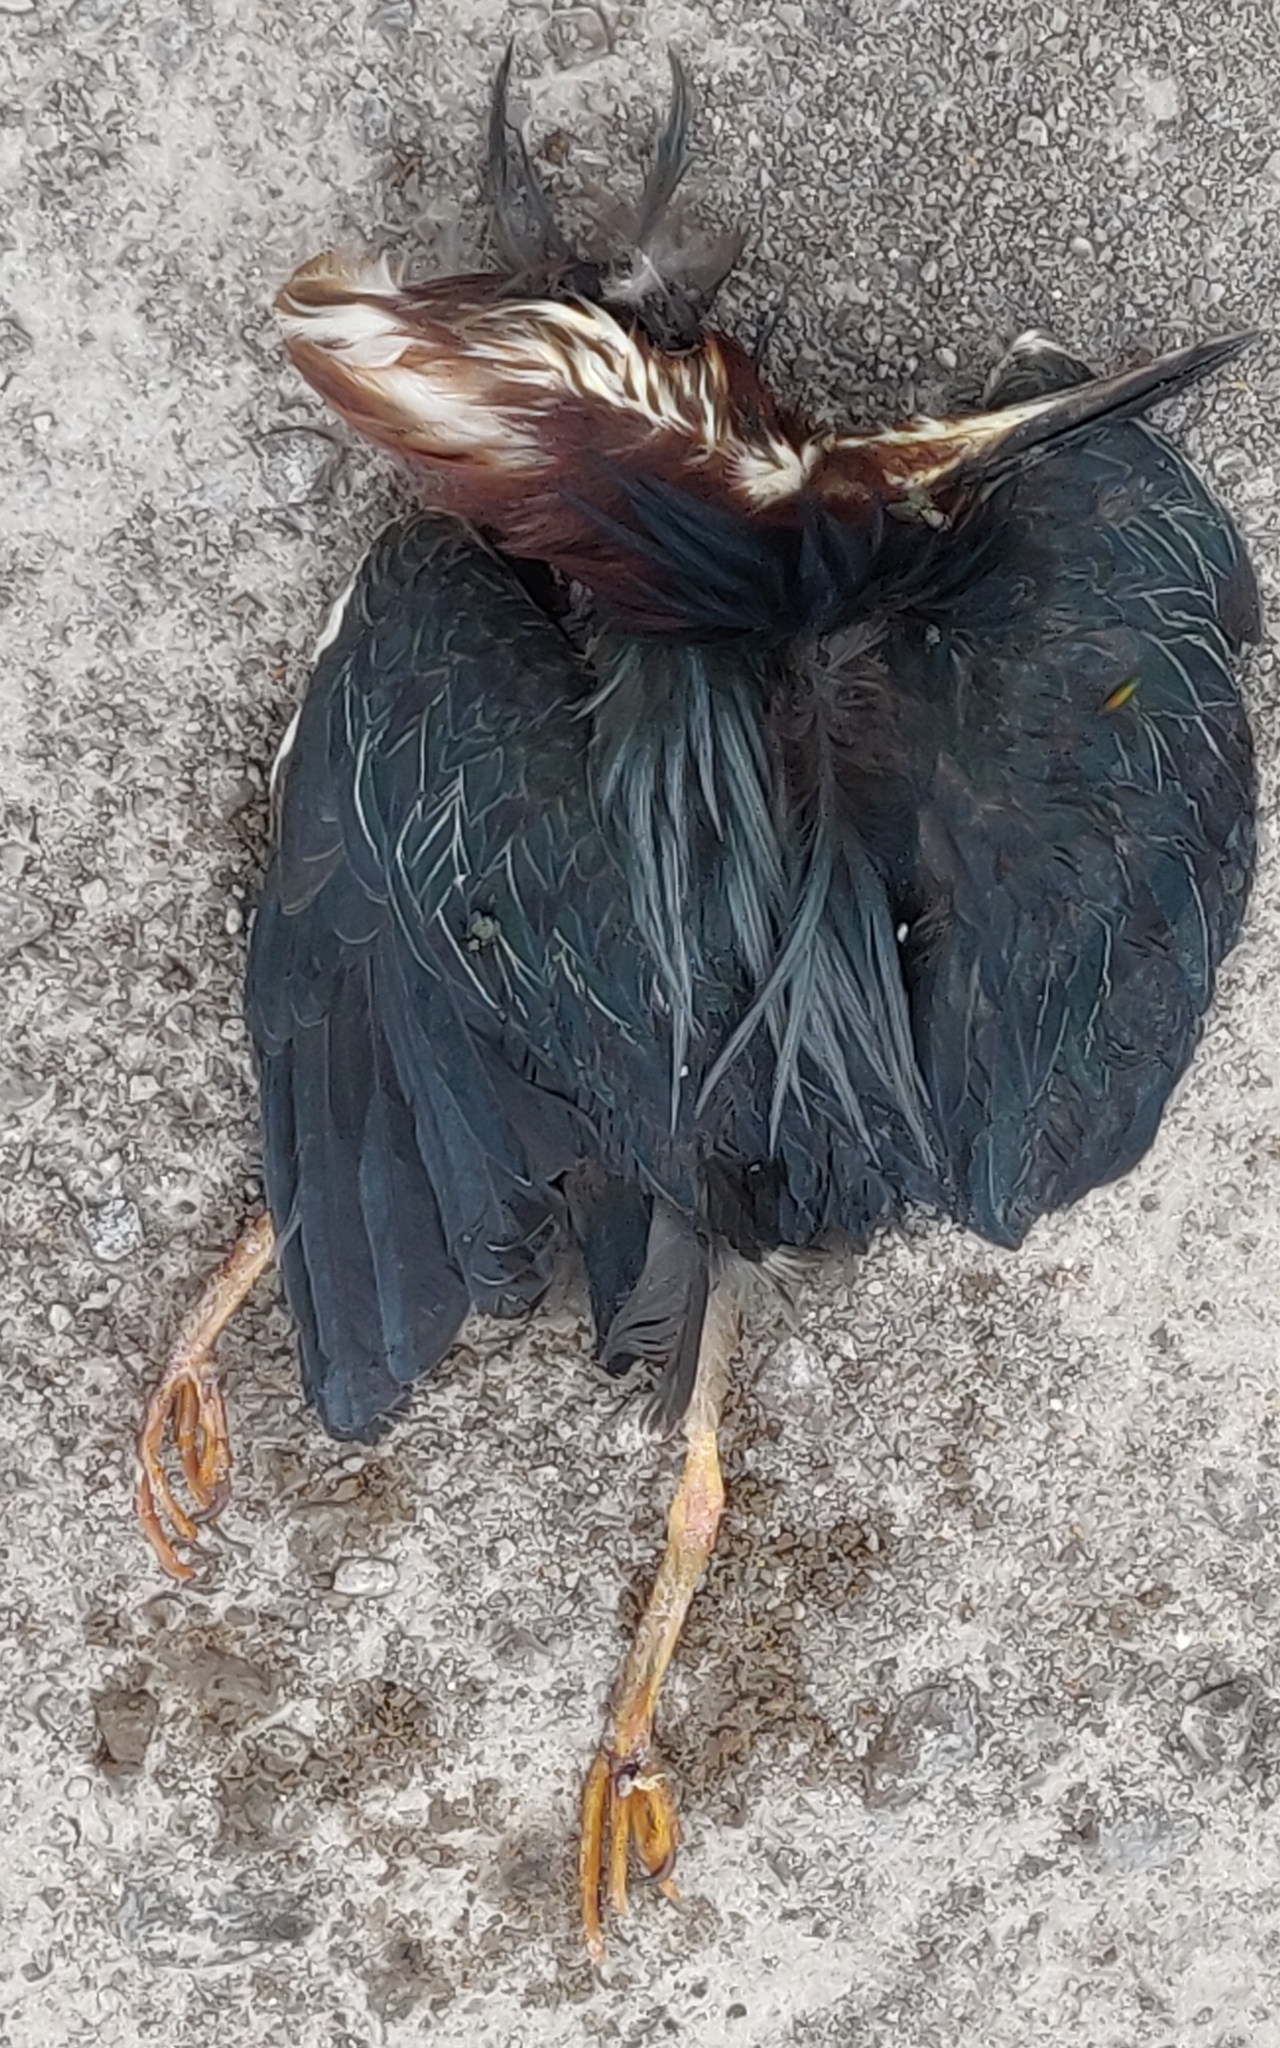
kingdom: Animalia
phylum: Chordata
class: Aves
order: Pelecaniformes
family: Ardeidae
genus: Butorides
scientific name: Butorides virescens
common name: Green heron
